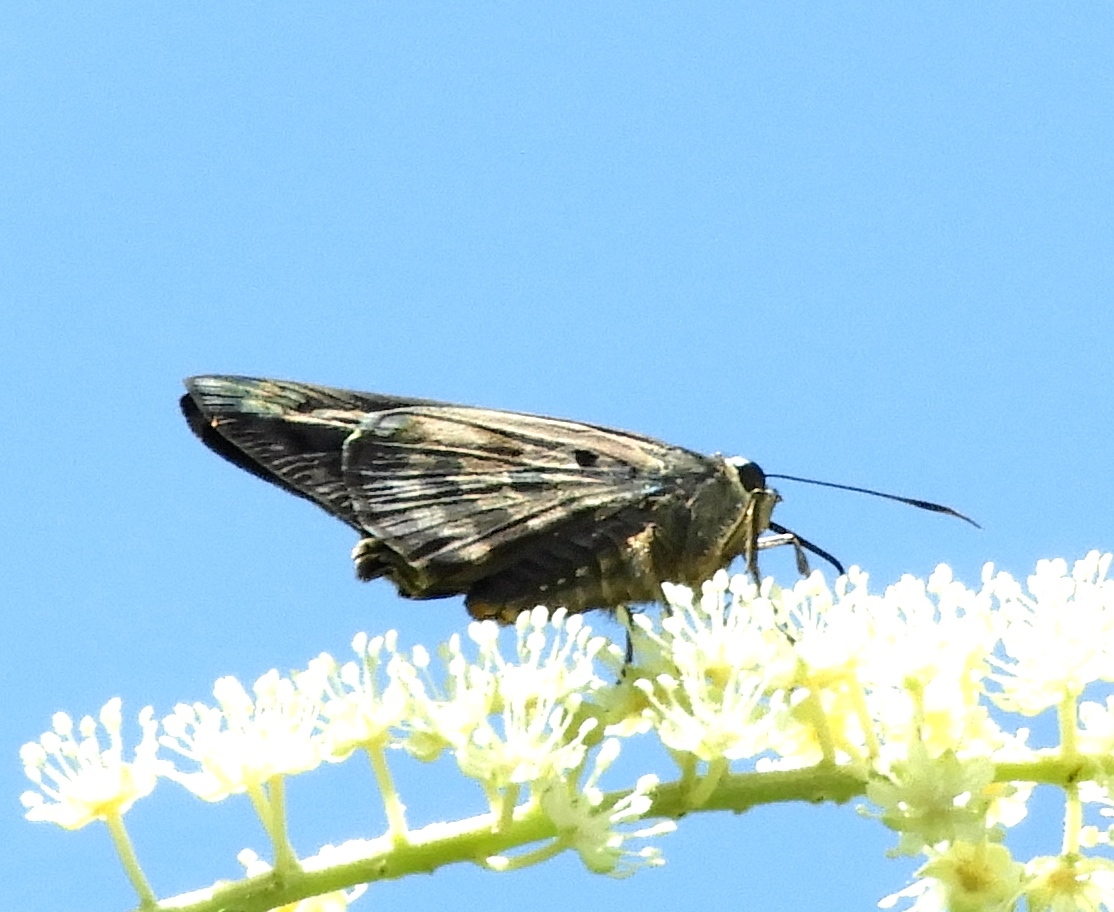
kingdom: Animalia
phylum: Arthropoda
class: Insecta
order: Lepidoptera
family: Hesperiidae
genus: Polygonus
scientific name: Polygonus
